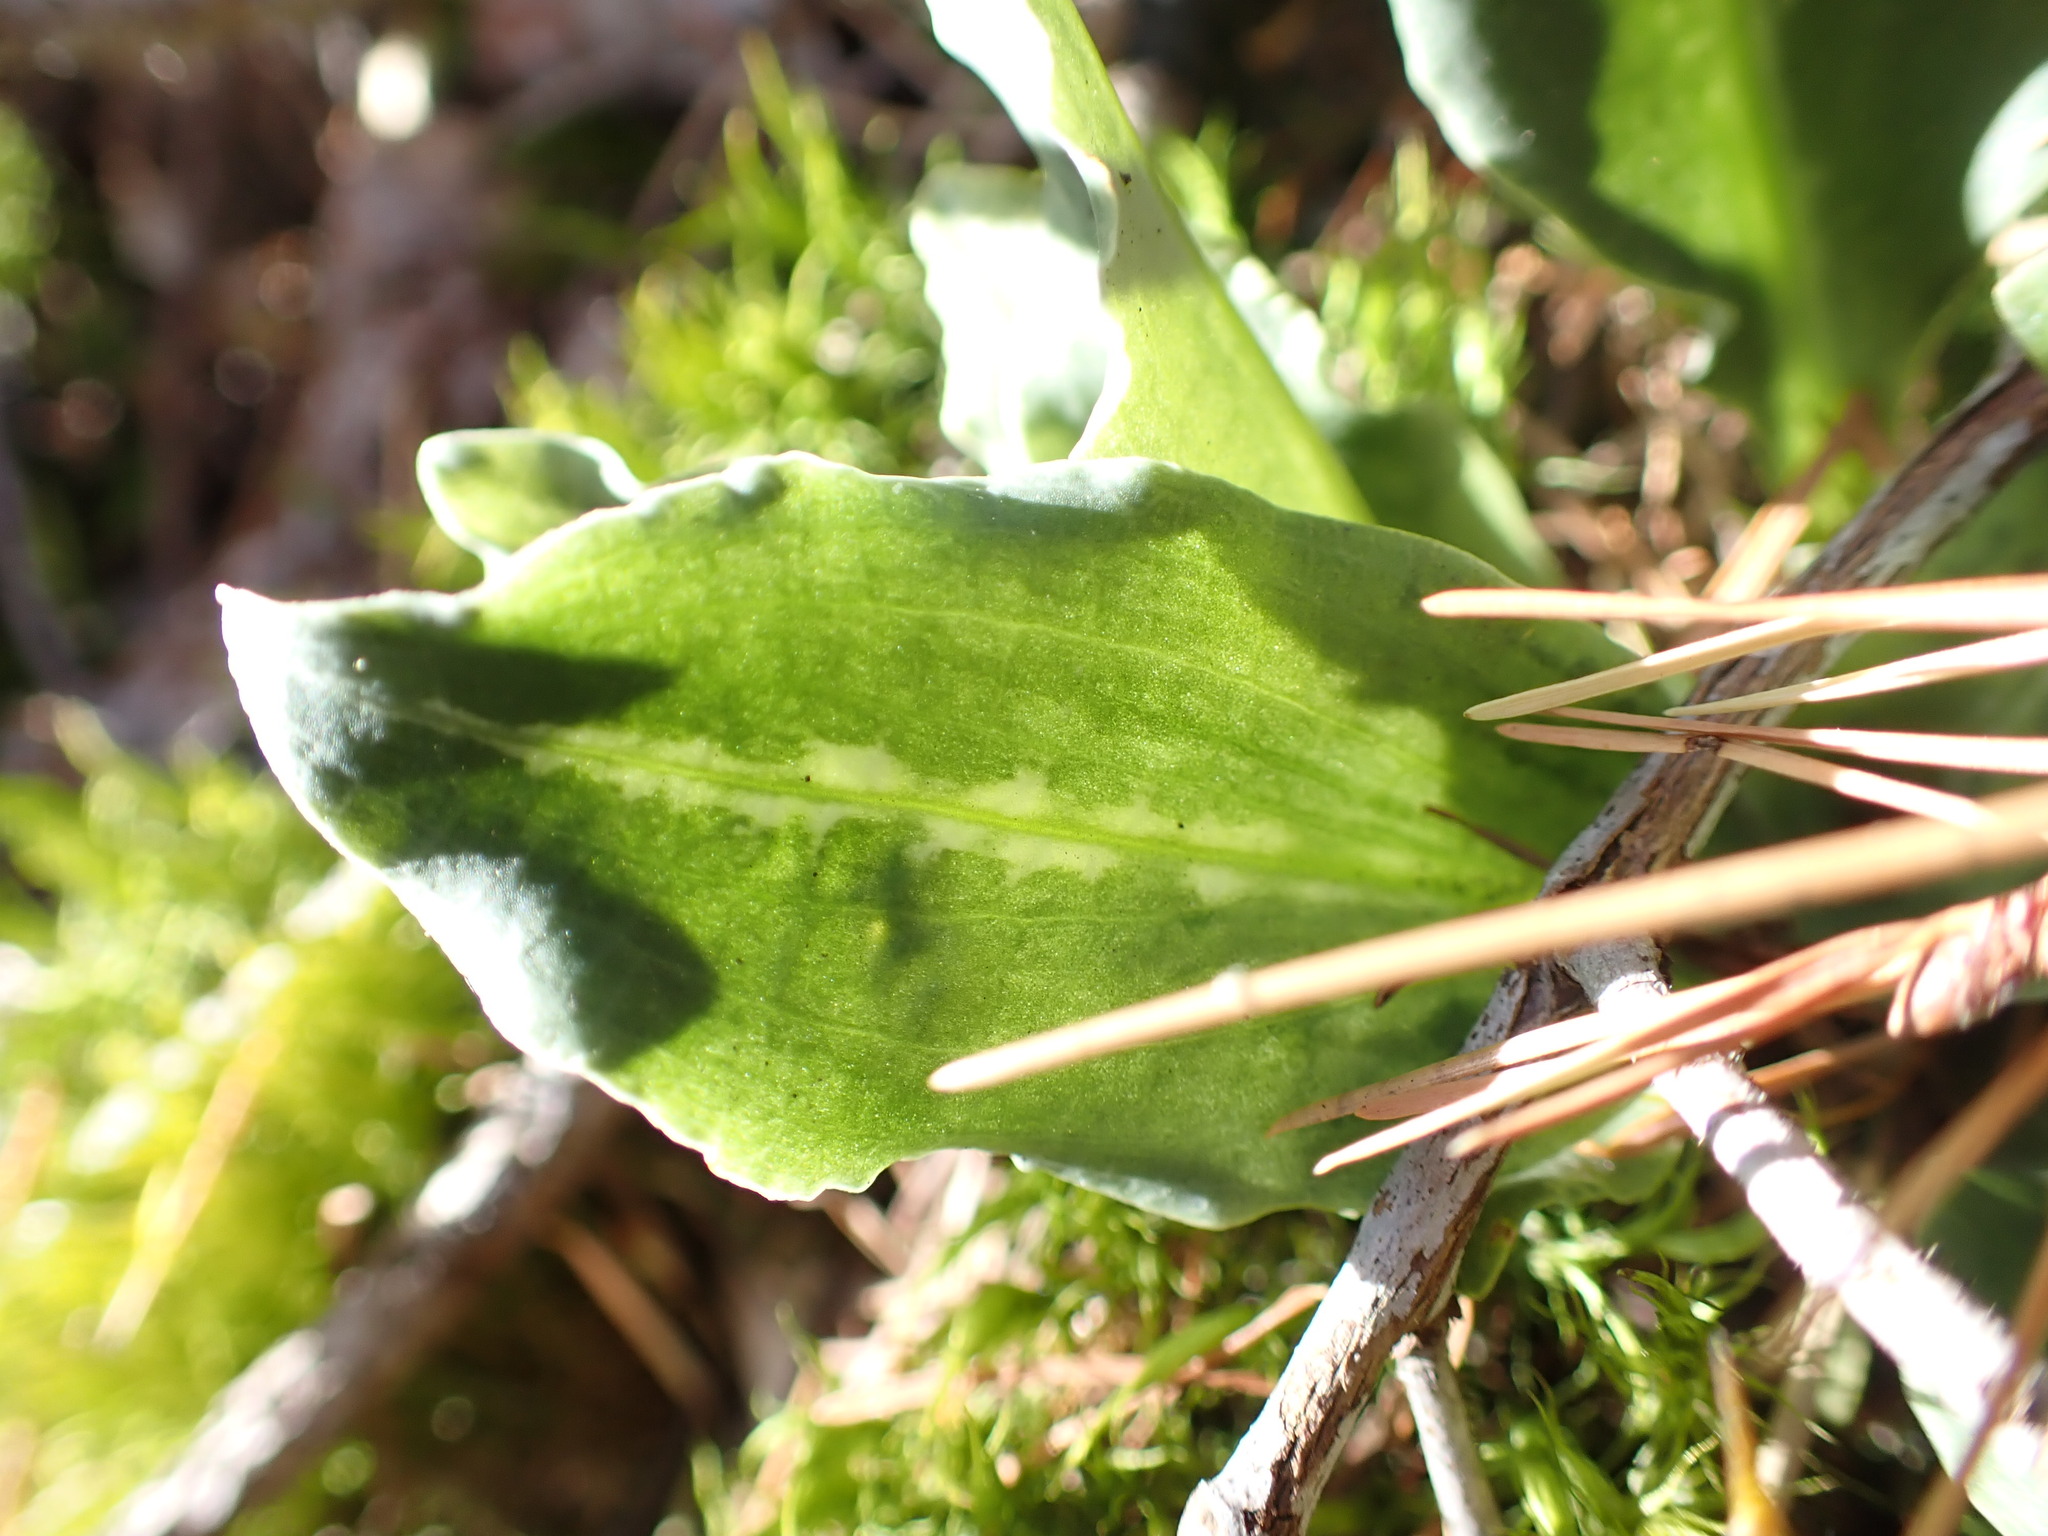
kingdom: Plantae
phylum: Tracheophyta
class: Liliopsida
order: Asparagales
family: Orchidaceae
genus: Goodyera
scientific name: Goodyera oblongifolia
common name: Giant rattlesnake-plantain
